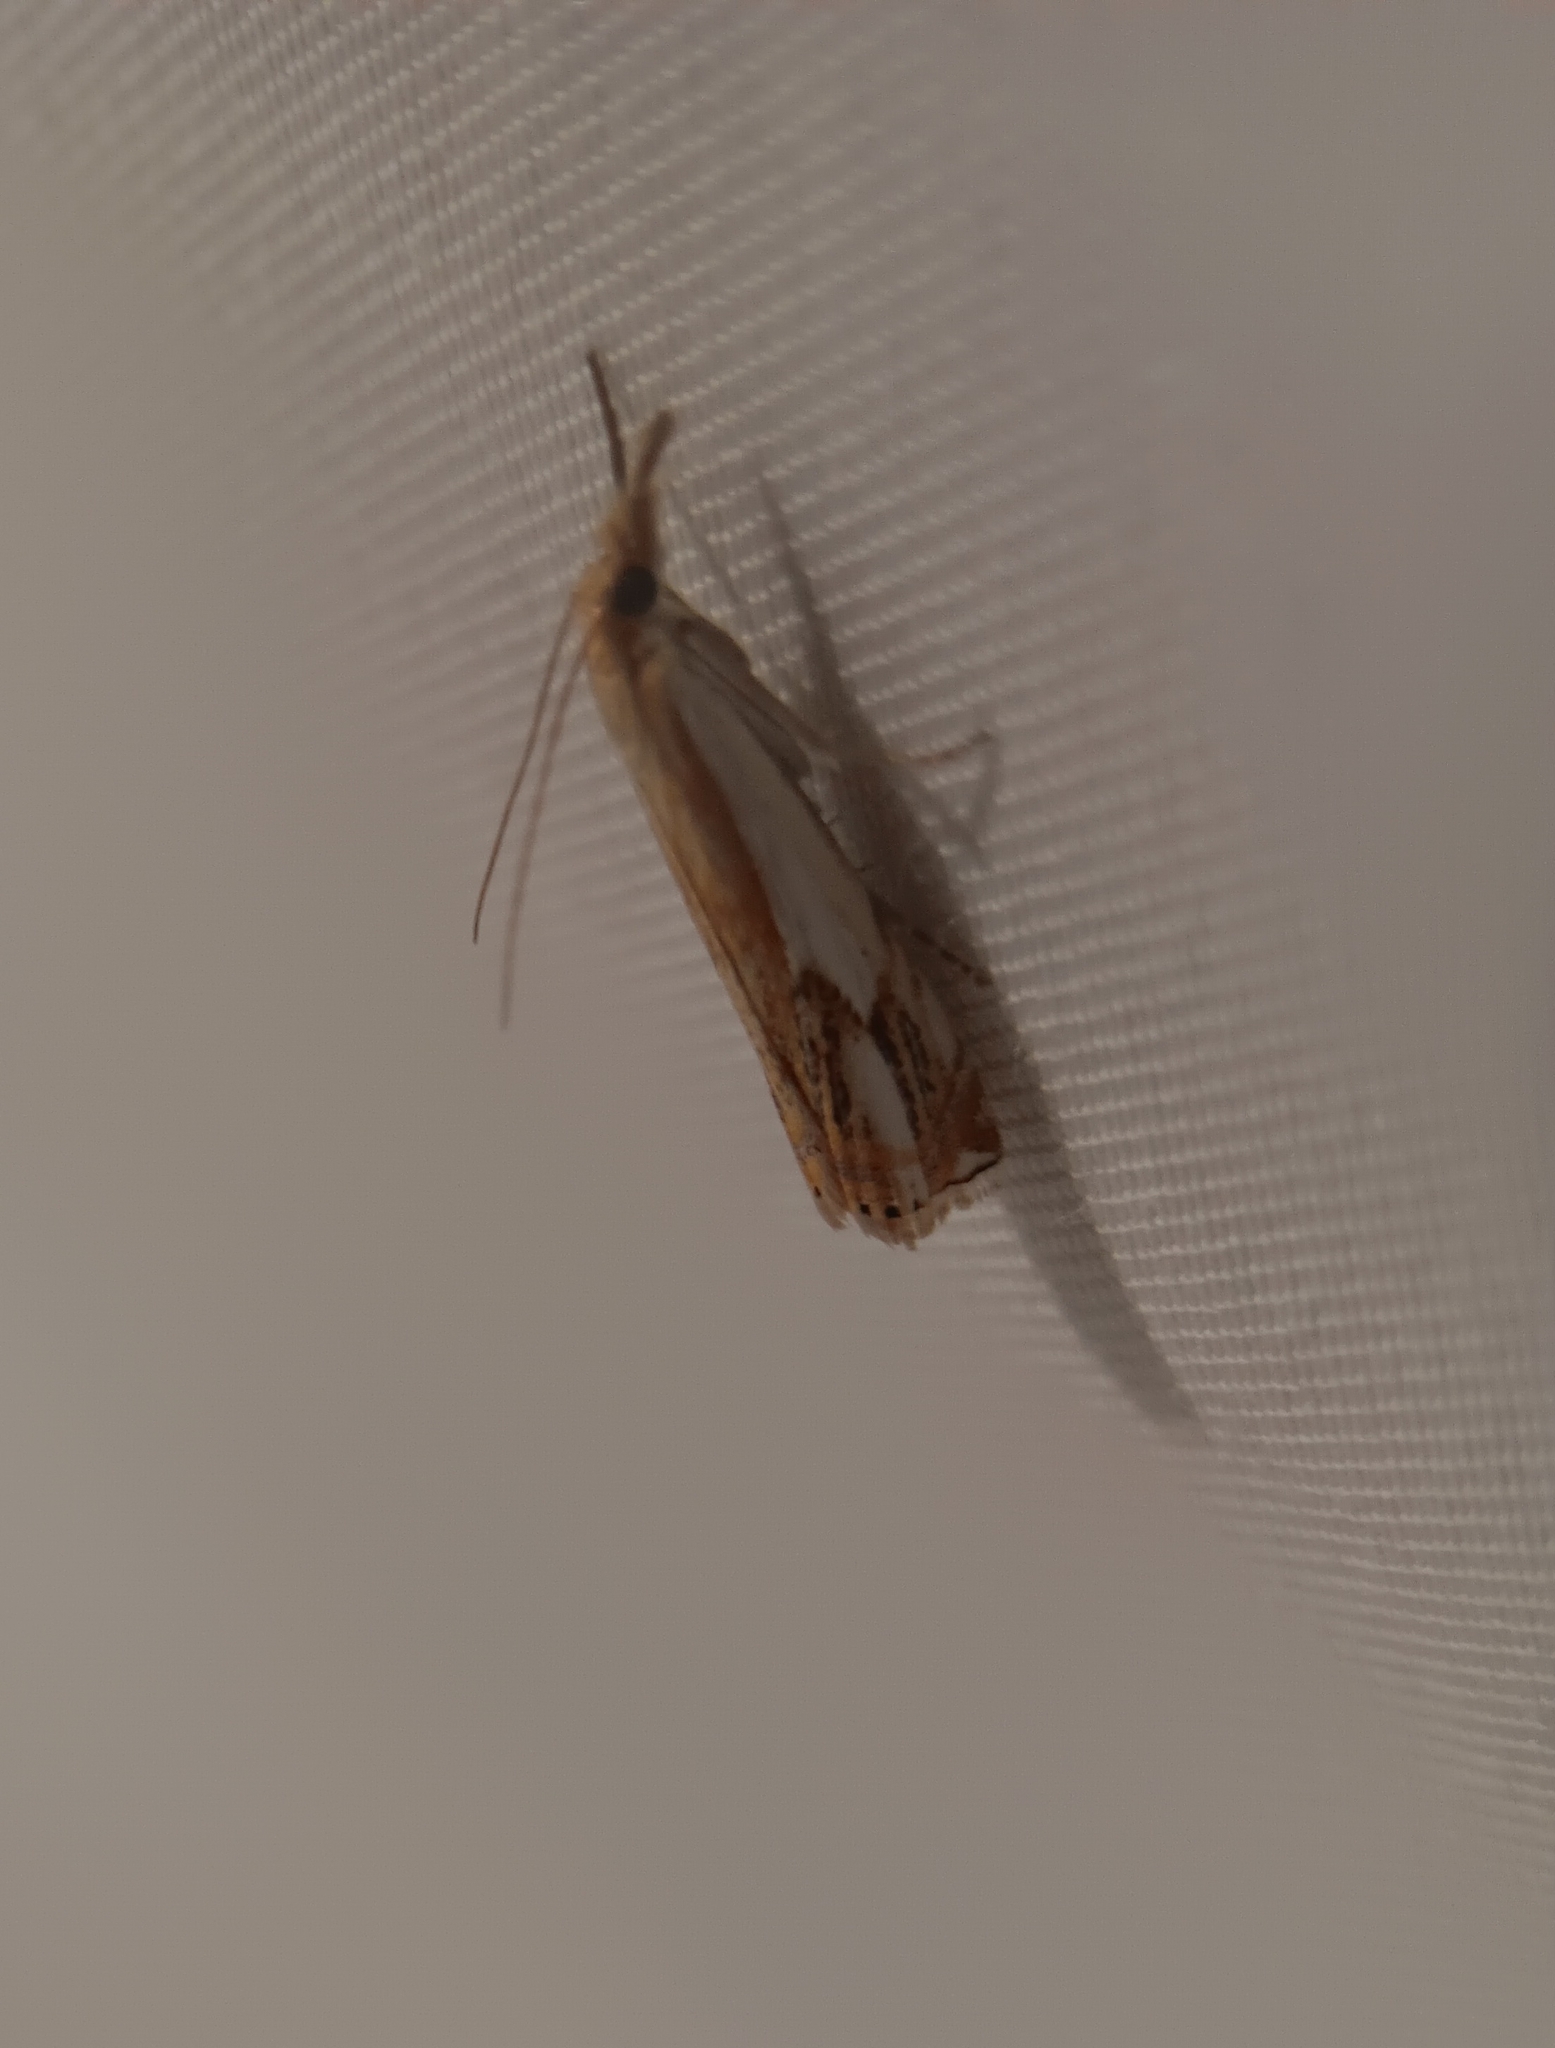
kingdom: Animalia
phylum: Arthropoda
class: Insecta
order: Lepidoptera
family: Crambidae
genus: Crambus
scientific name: Crambus agitatellus
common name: Double-banded grass-veneer
